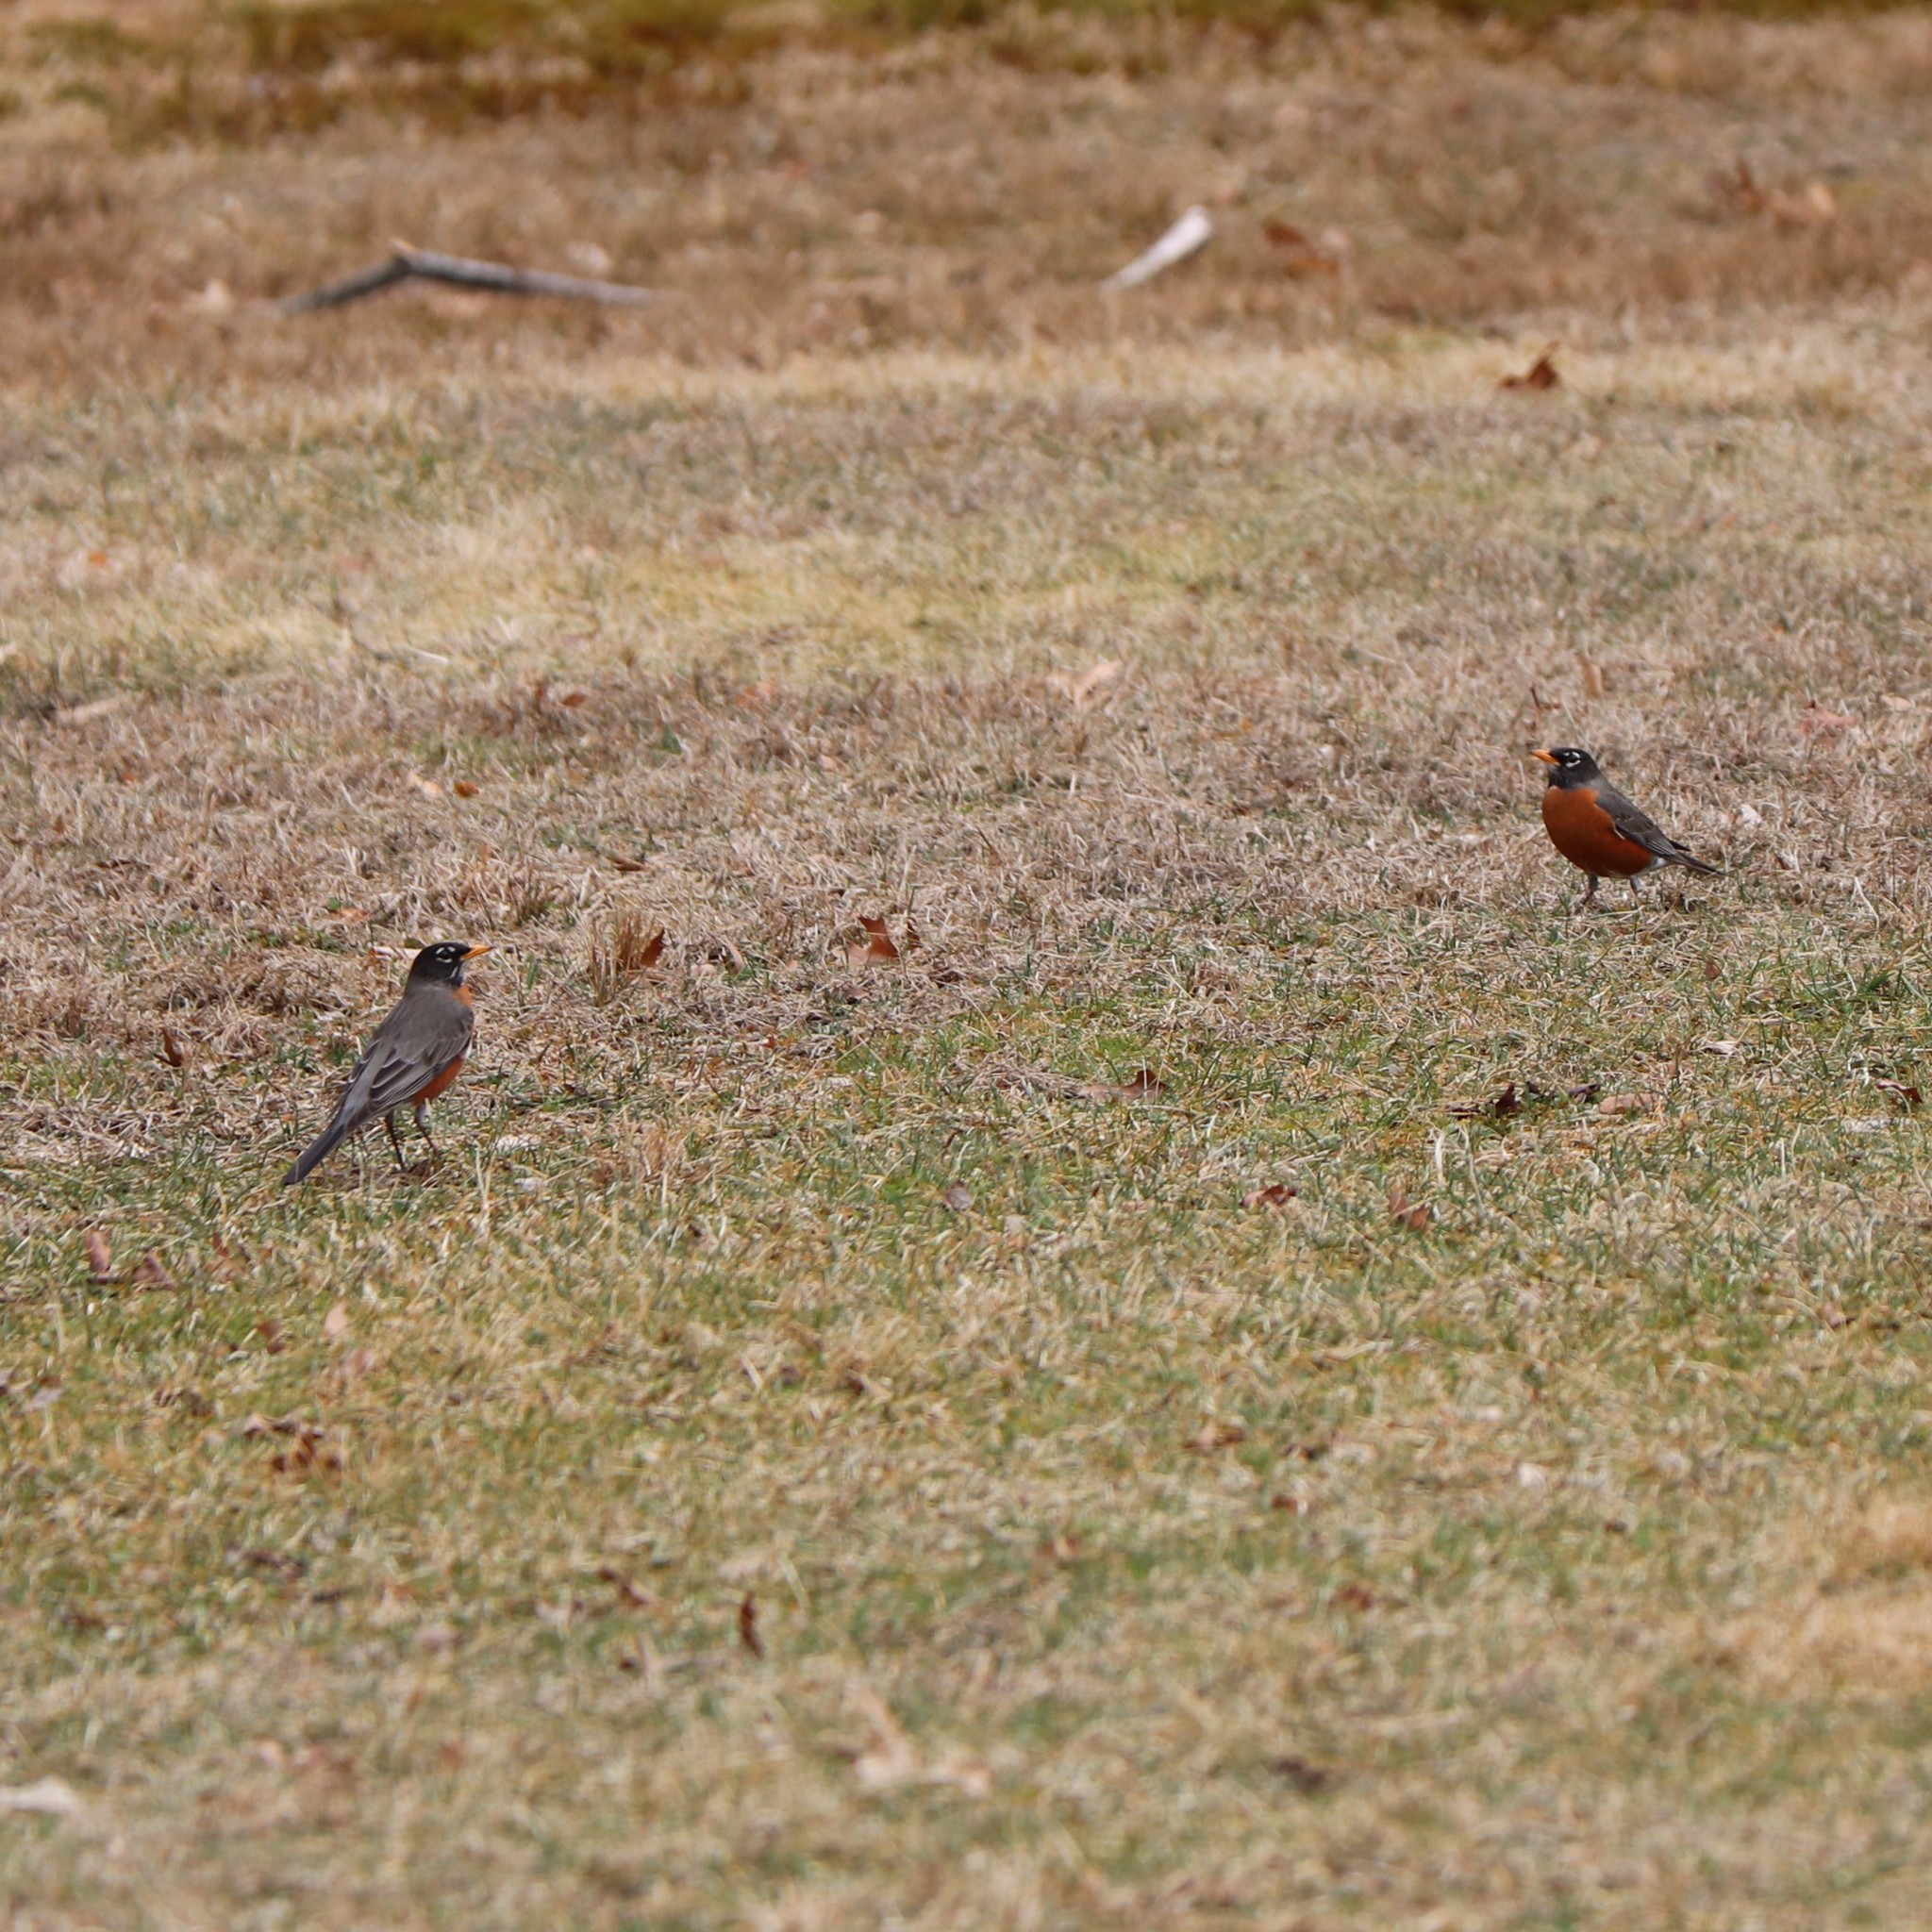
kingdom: Animalia
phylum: Chordata
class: Aves
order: Passeriformes
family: Turdidae
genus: Turdus
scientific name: Turdus migratorius
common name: American robin
